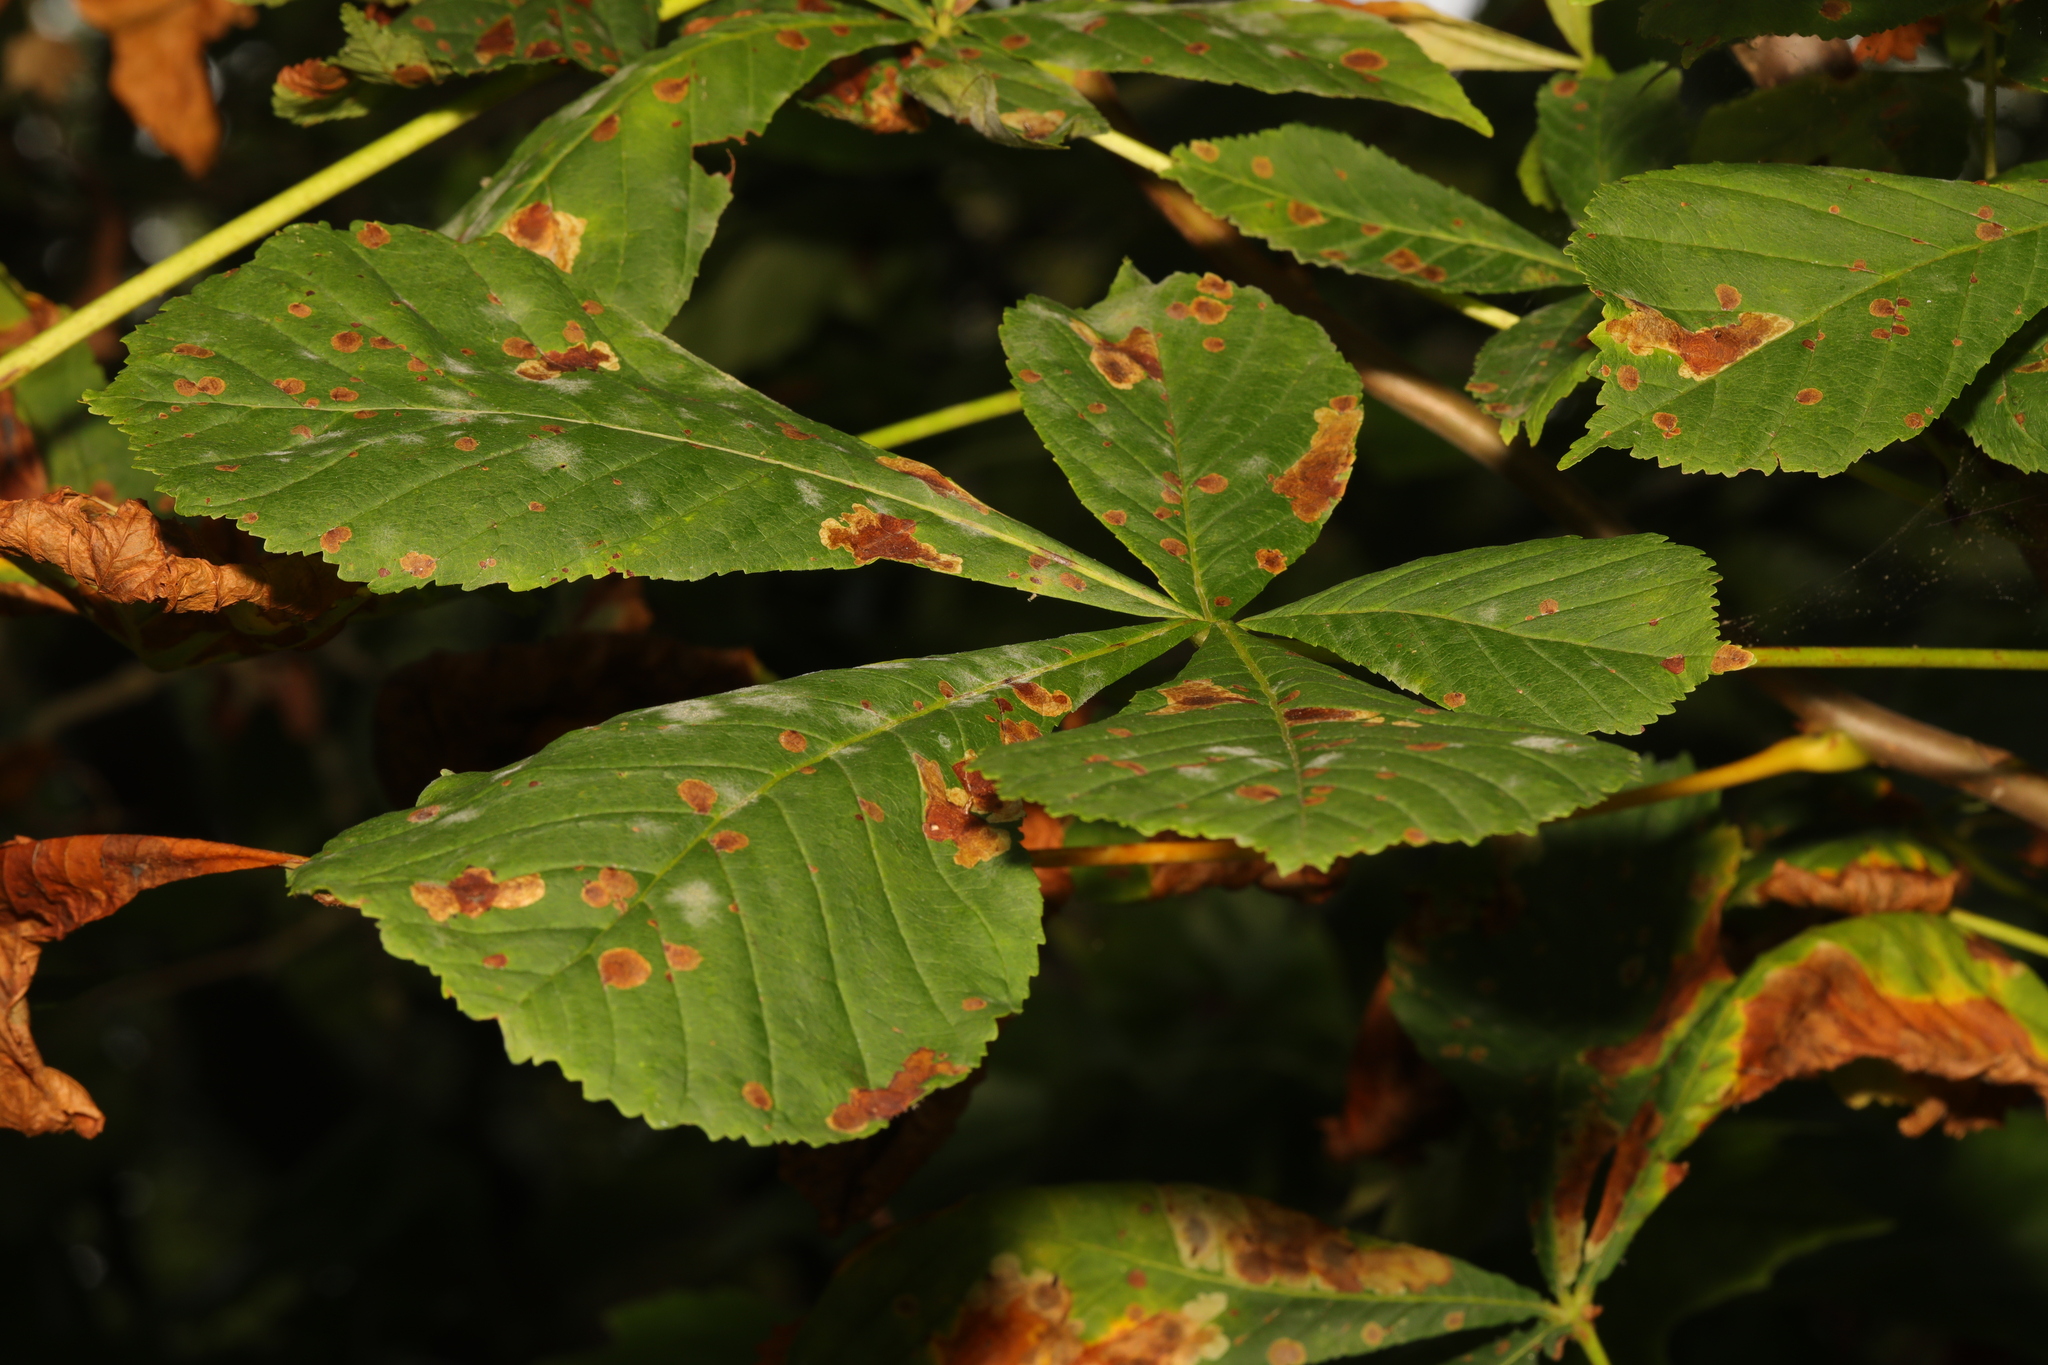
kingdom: Plantae
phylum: Tracheophyta
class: Magnoliopsida
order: Sapindales
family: Sapindaceae
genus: Aesculus
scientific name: Aesculus hippocastanum
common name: Horse-chestnut
